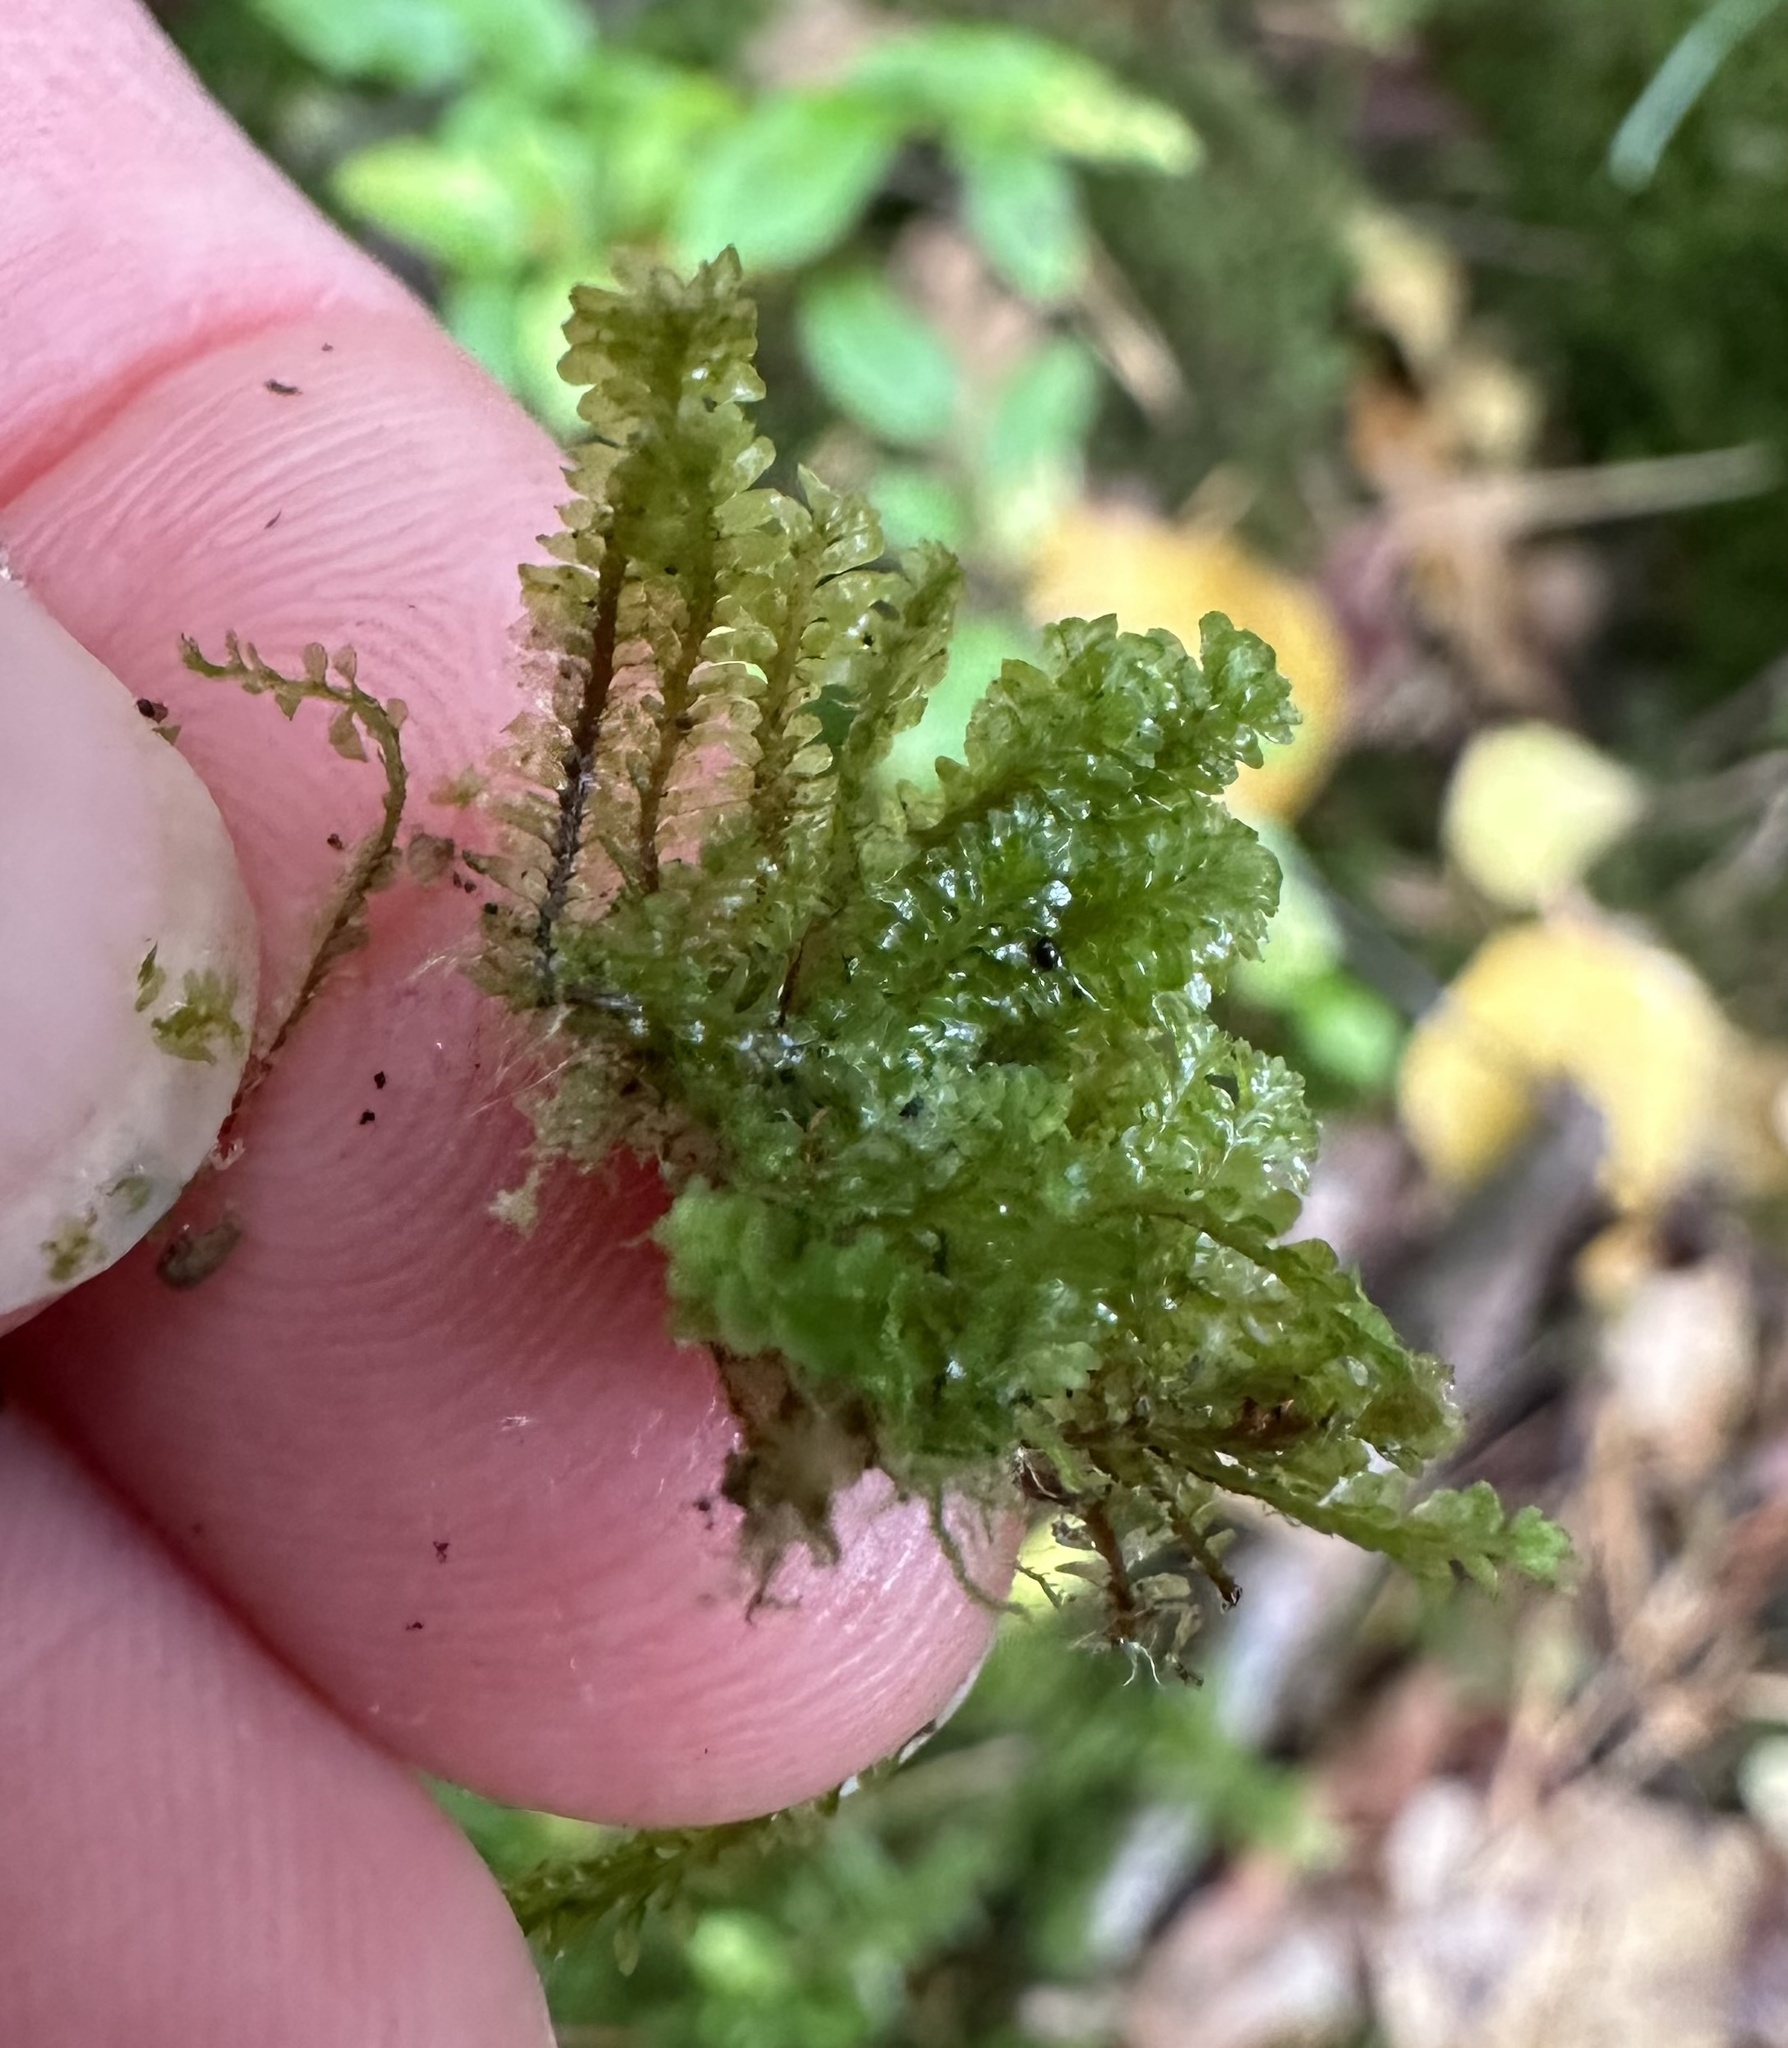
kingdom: Plantae
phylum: Marchantiophyta
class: Jungermanniopsida
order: Jungermanniales
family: Scapaniaceae
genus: Diplophyllum
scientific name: Diplophyllum albicans
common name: White earwort
